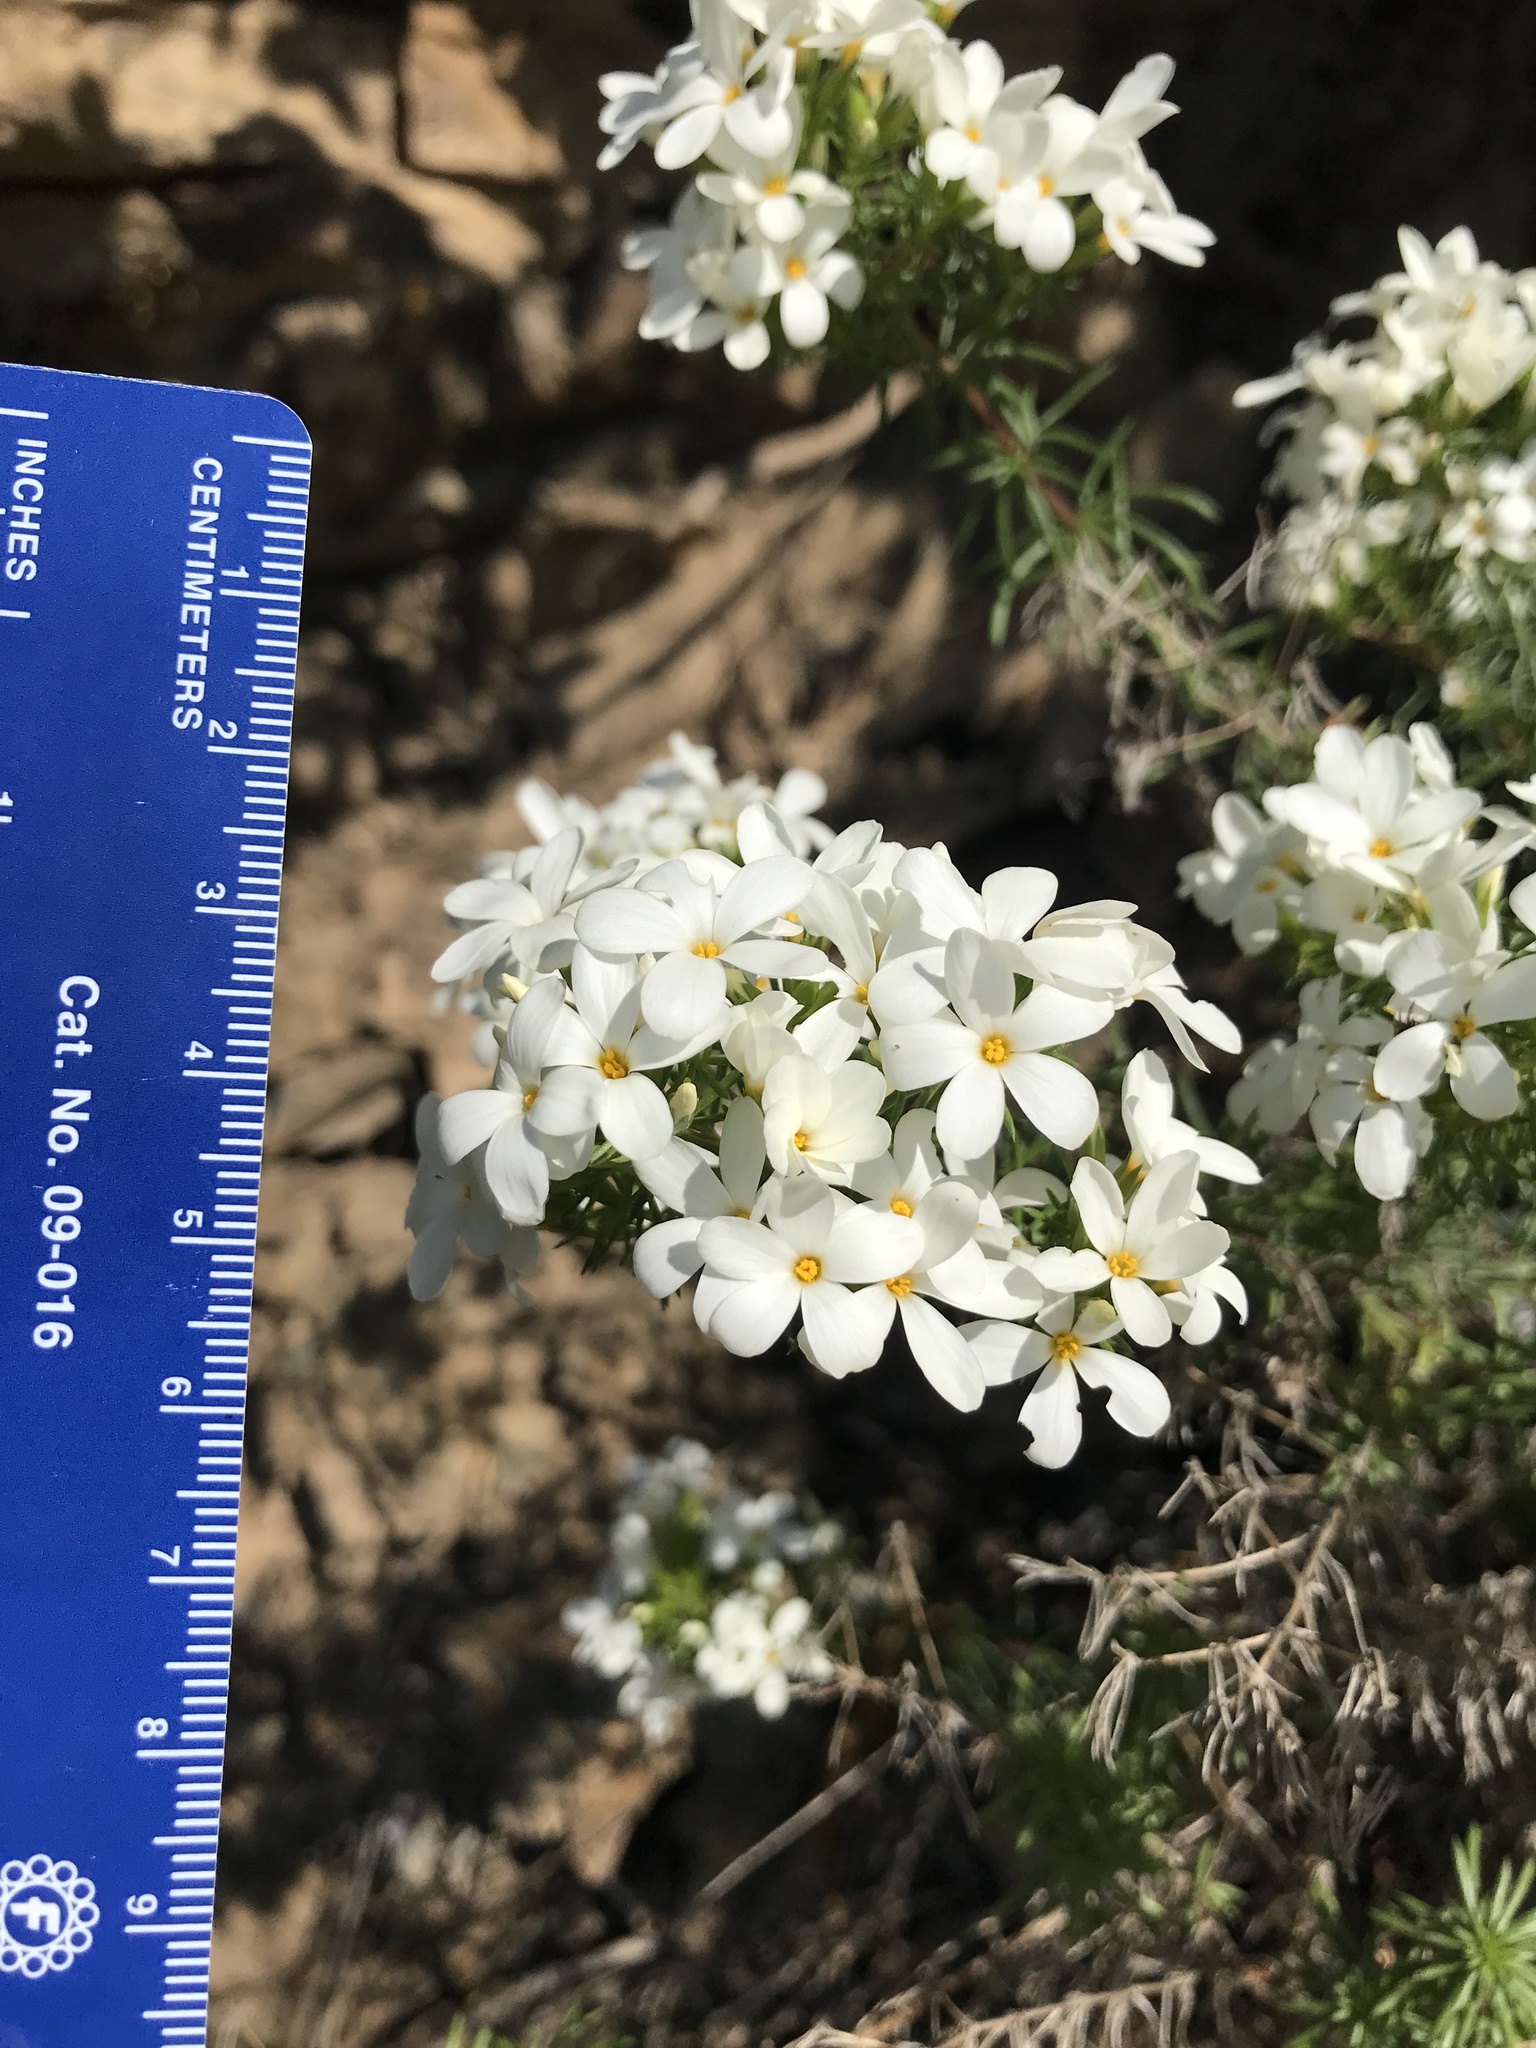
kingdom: Plantae
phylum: Tracheophyta
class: Magnoliopsida
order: Ericales
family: Polemoniaceae
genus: Leptosiphon
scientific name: Leptosiphon floribundum
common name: Many-flower linanthus
